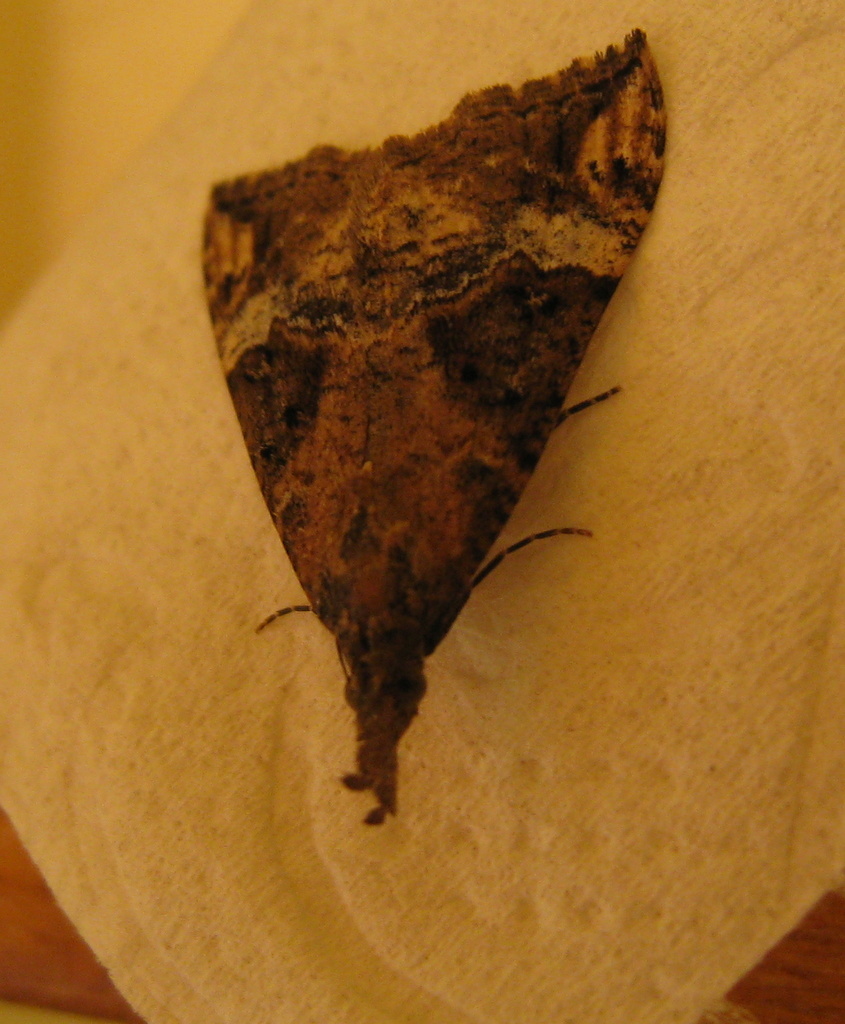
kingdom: Animalia
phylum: Arthropoda
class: Insecta
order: Lepidoptera
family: Erebidae
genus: Hypena
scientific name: Hypena obsitalis
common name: Bloxworth snout
